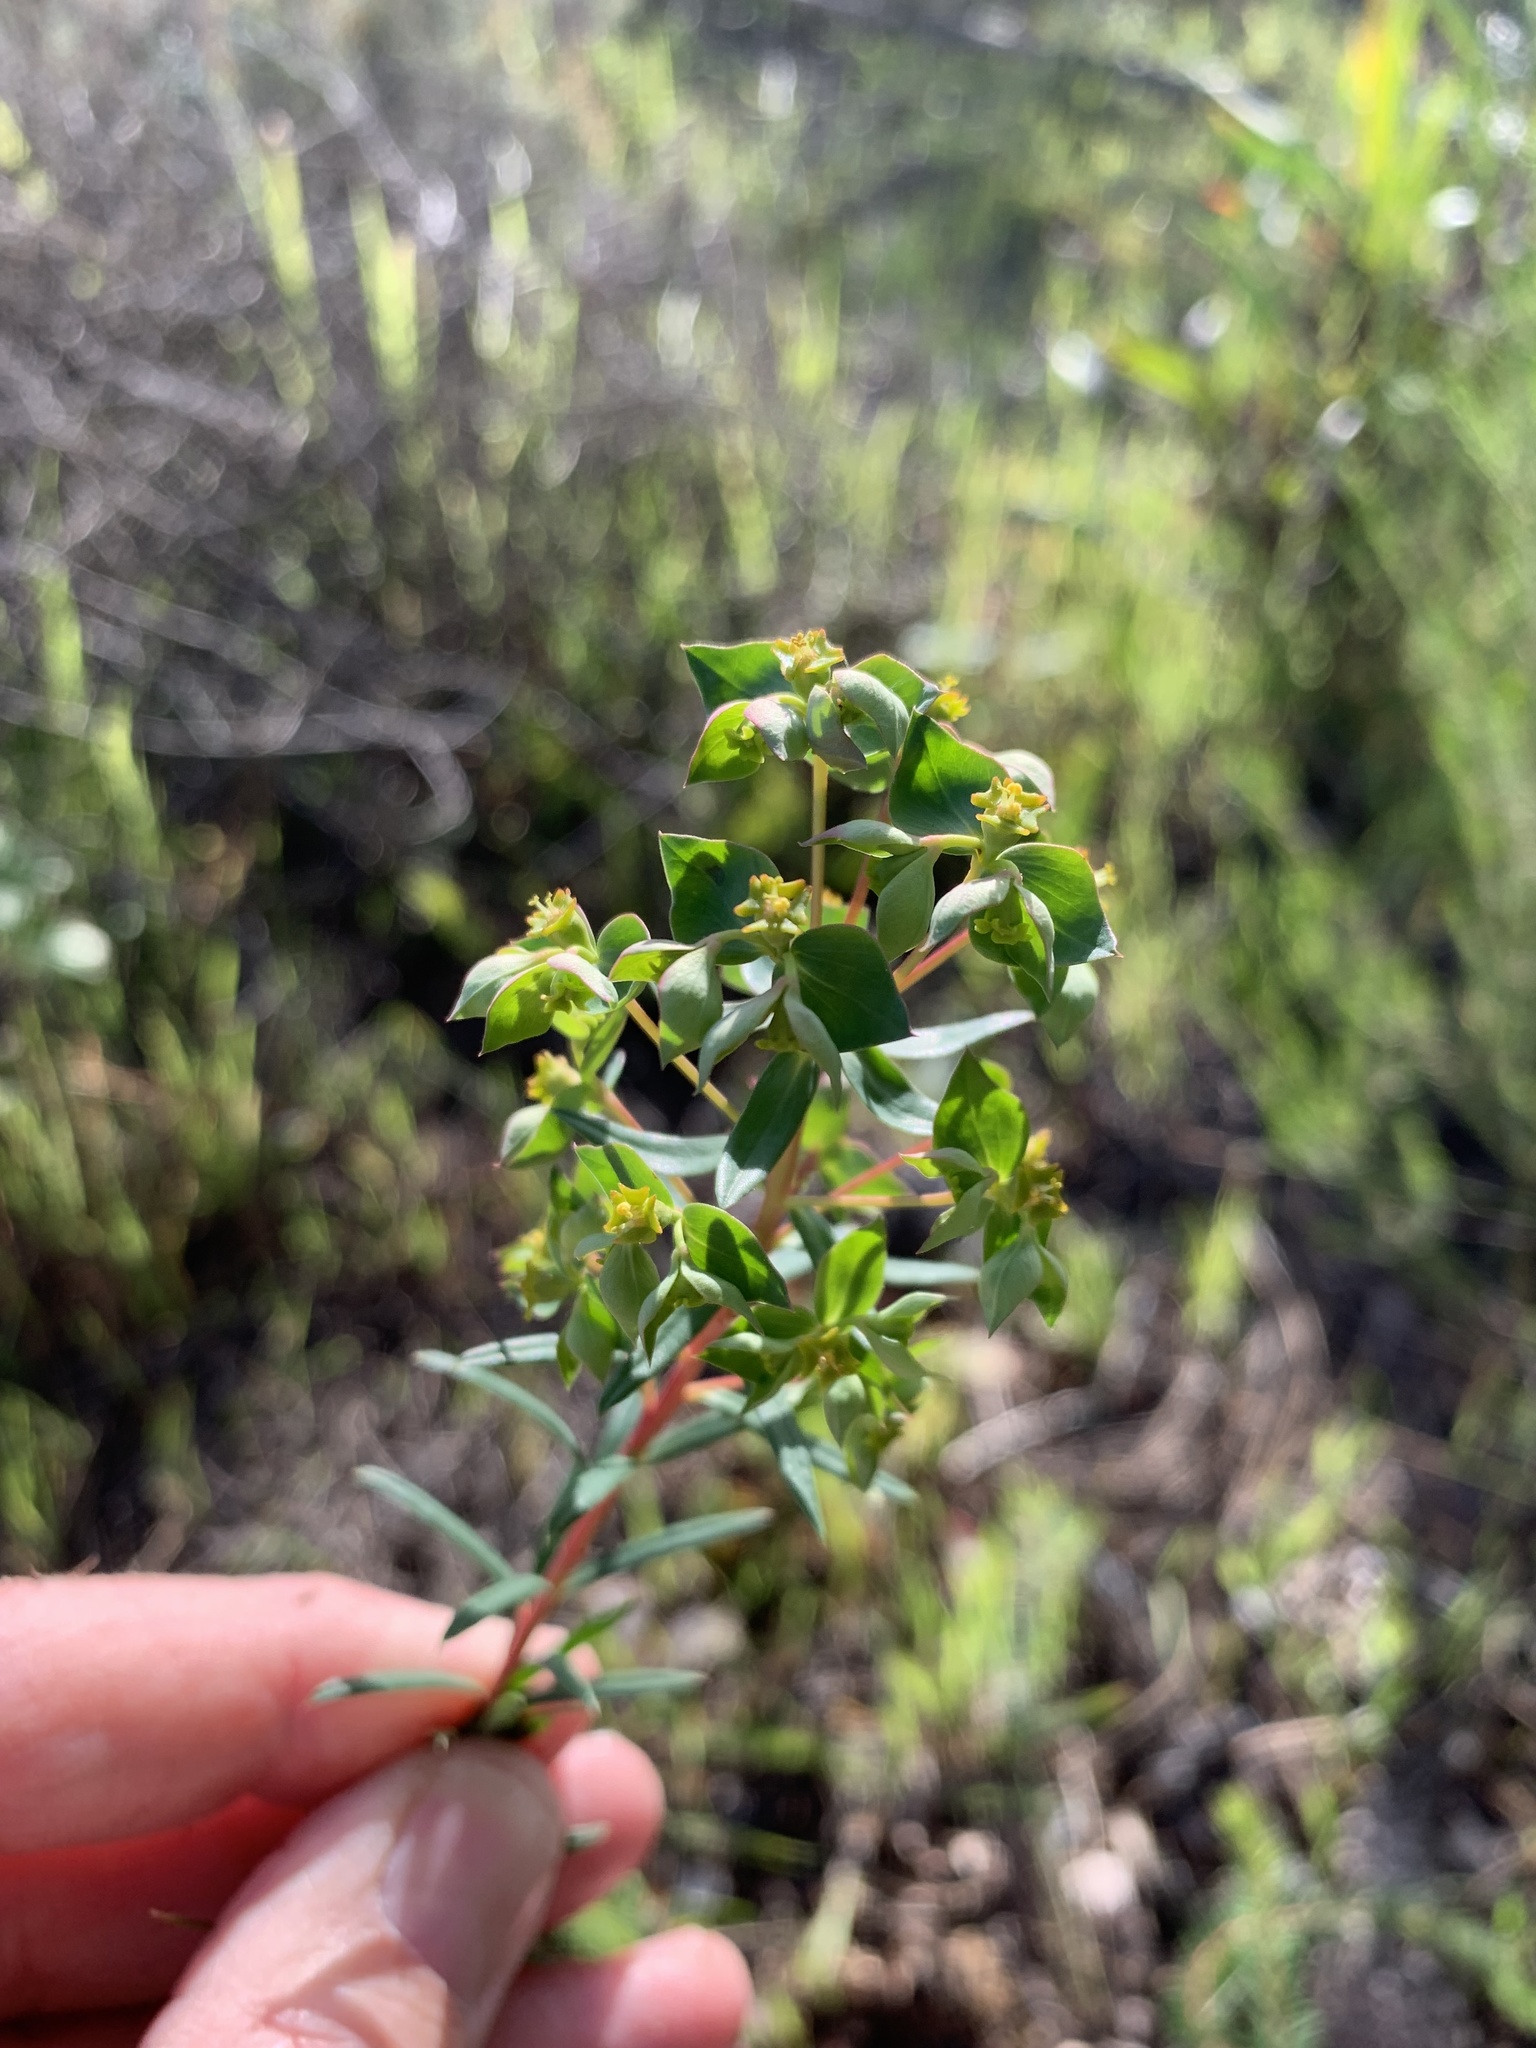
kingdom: Plantae
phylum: Tracheophyta
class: Magnoliopsida
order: Malpighiales
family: Euphorbiaceae
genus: Euphorbia
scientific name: Euphorbia genistoides
